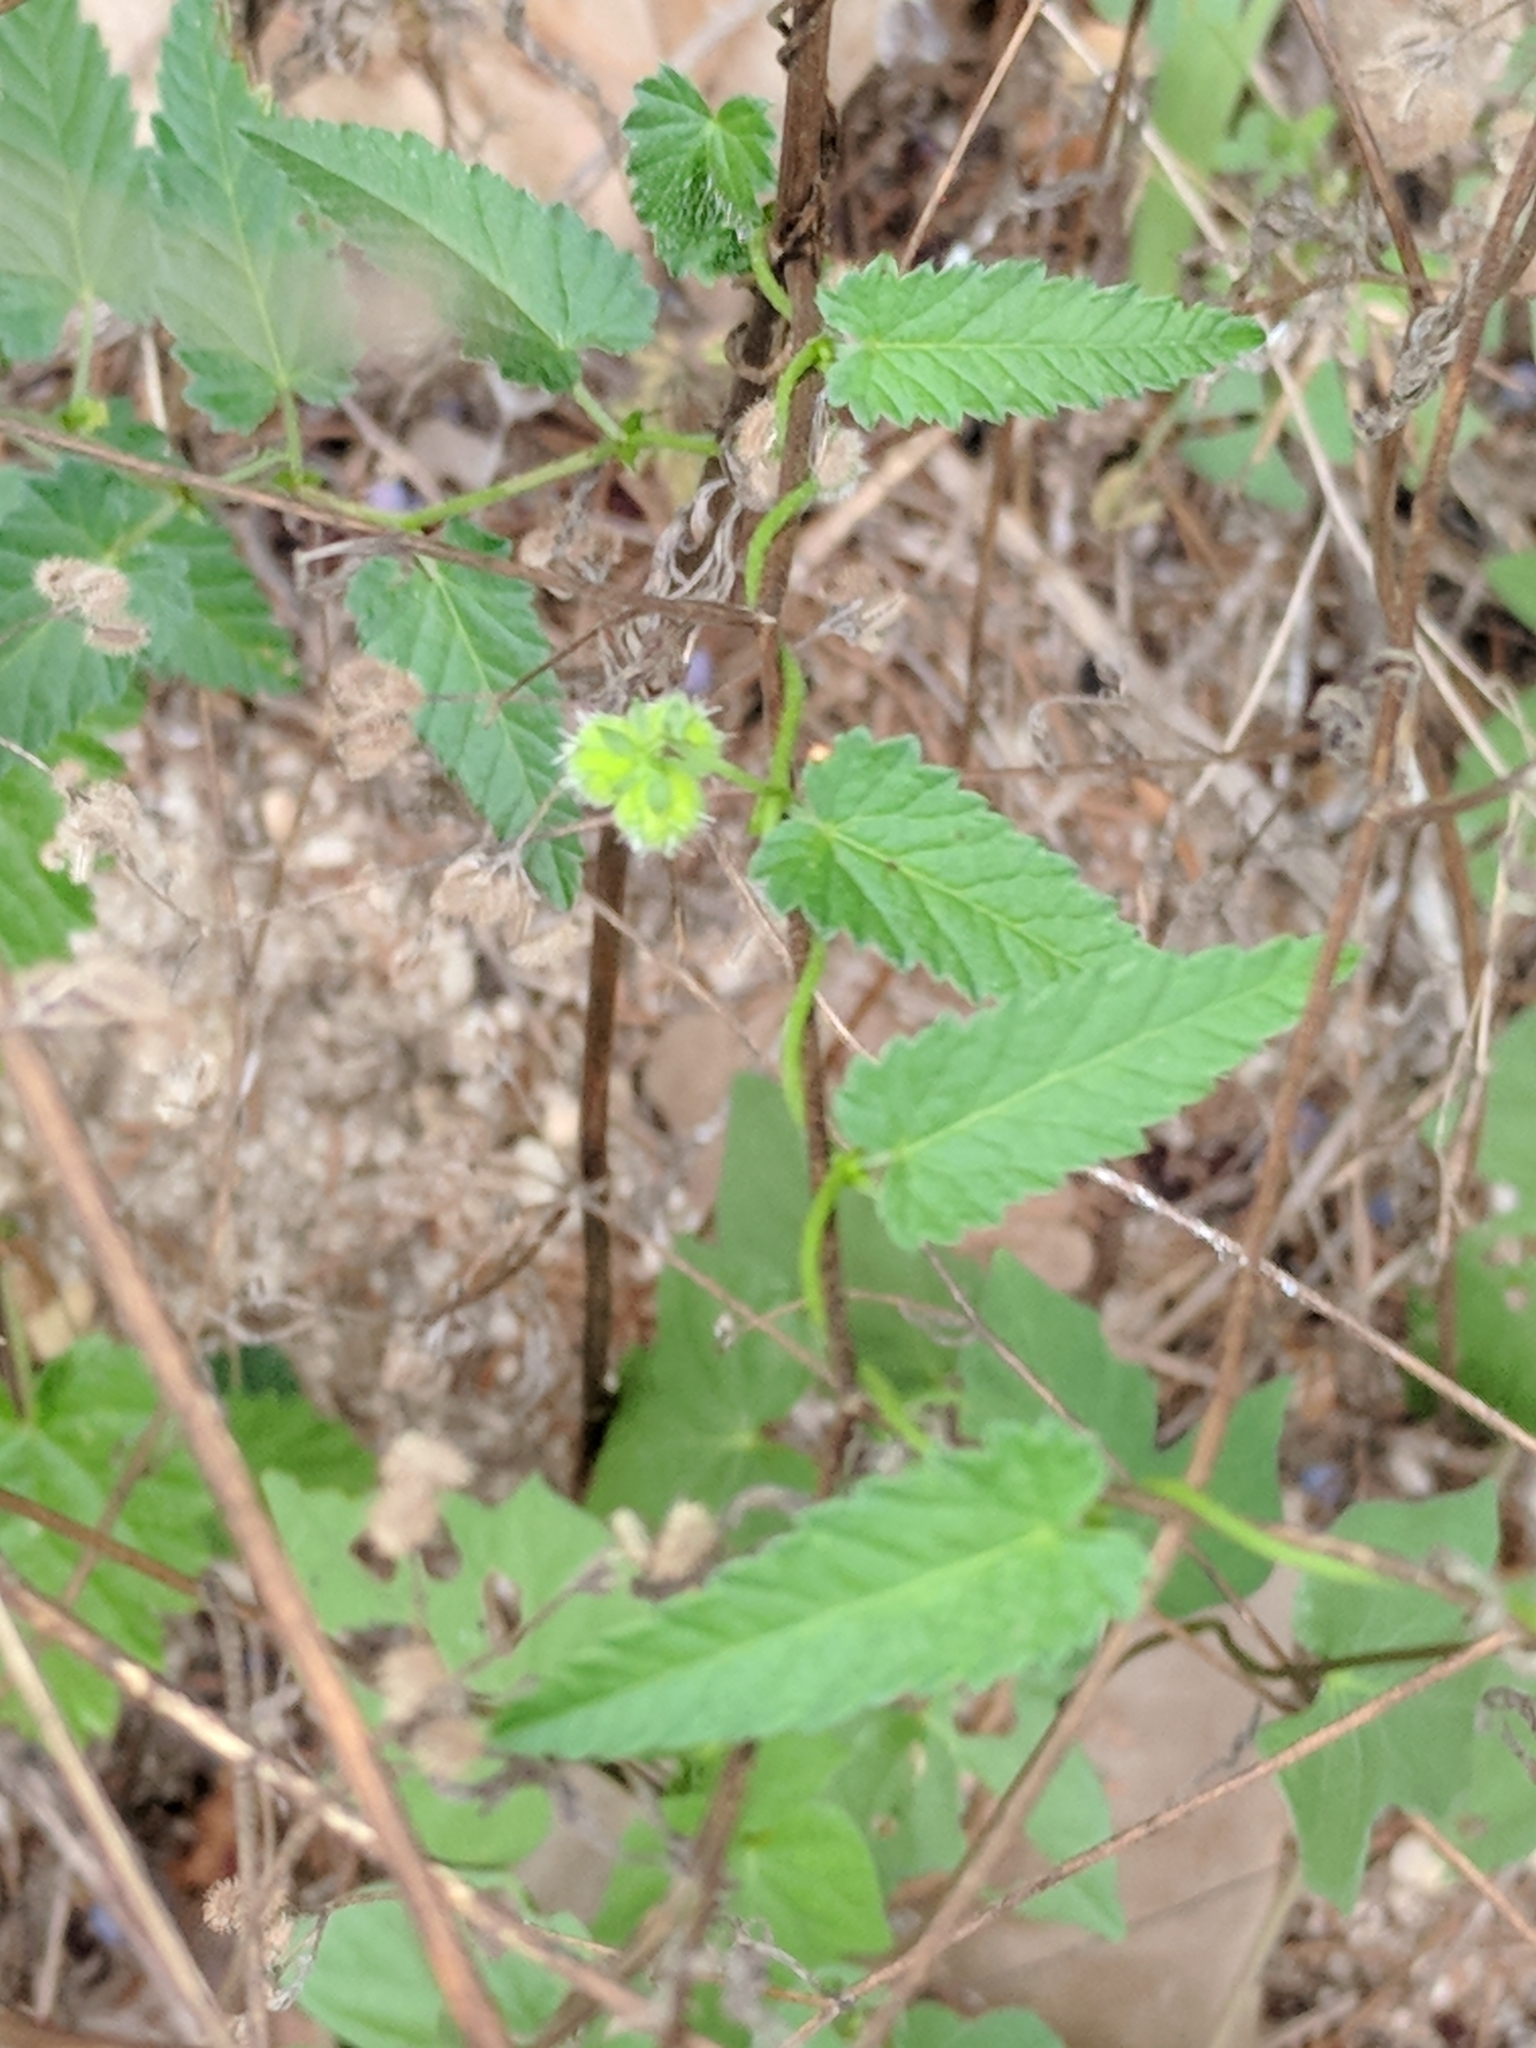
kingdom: Plantae
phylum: Tracheophyta
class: Magnoliopsida
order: Malpighiales
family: Euphorbiaceae
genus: Tragia
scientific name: Tragia brevispica
